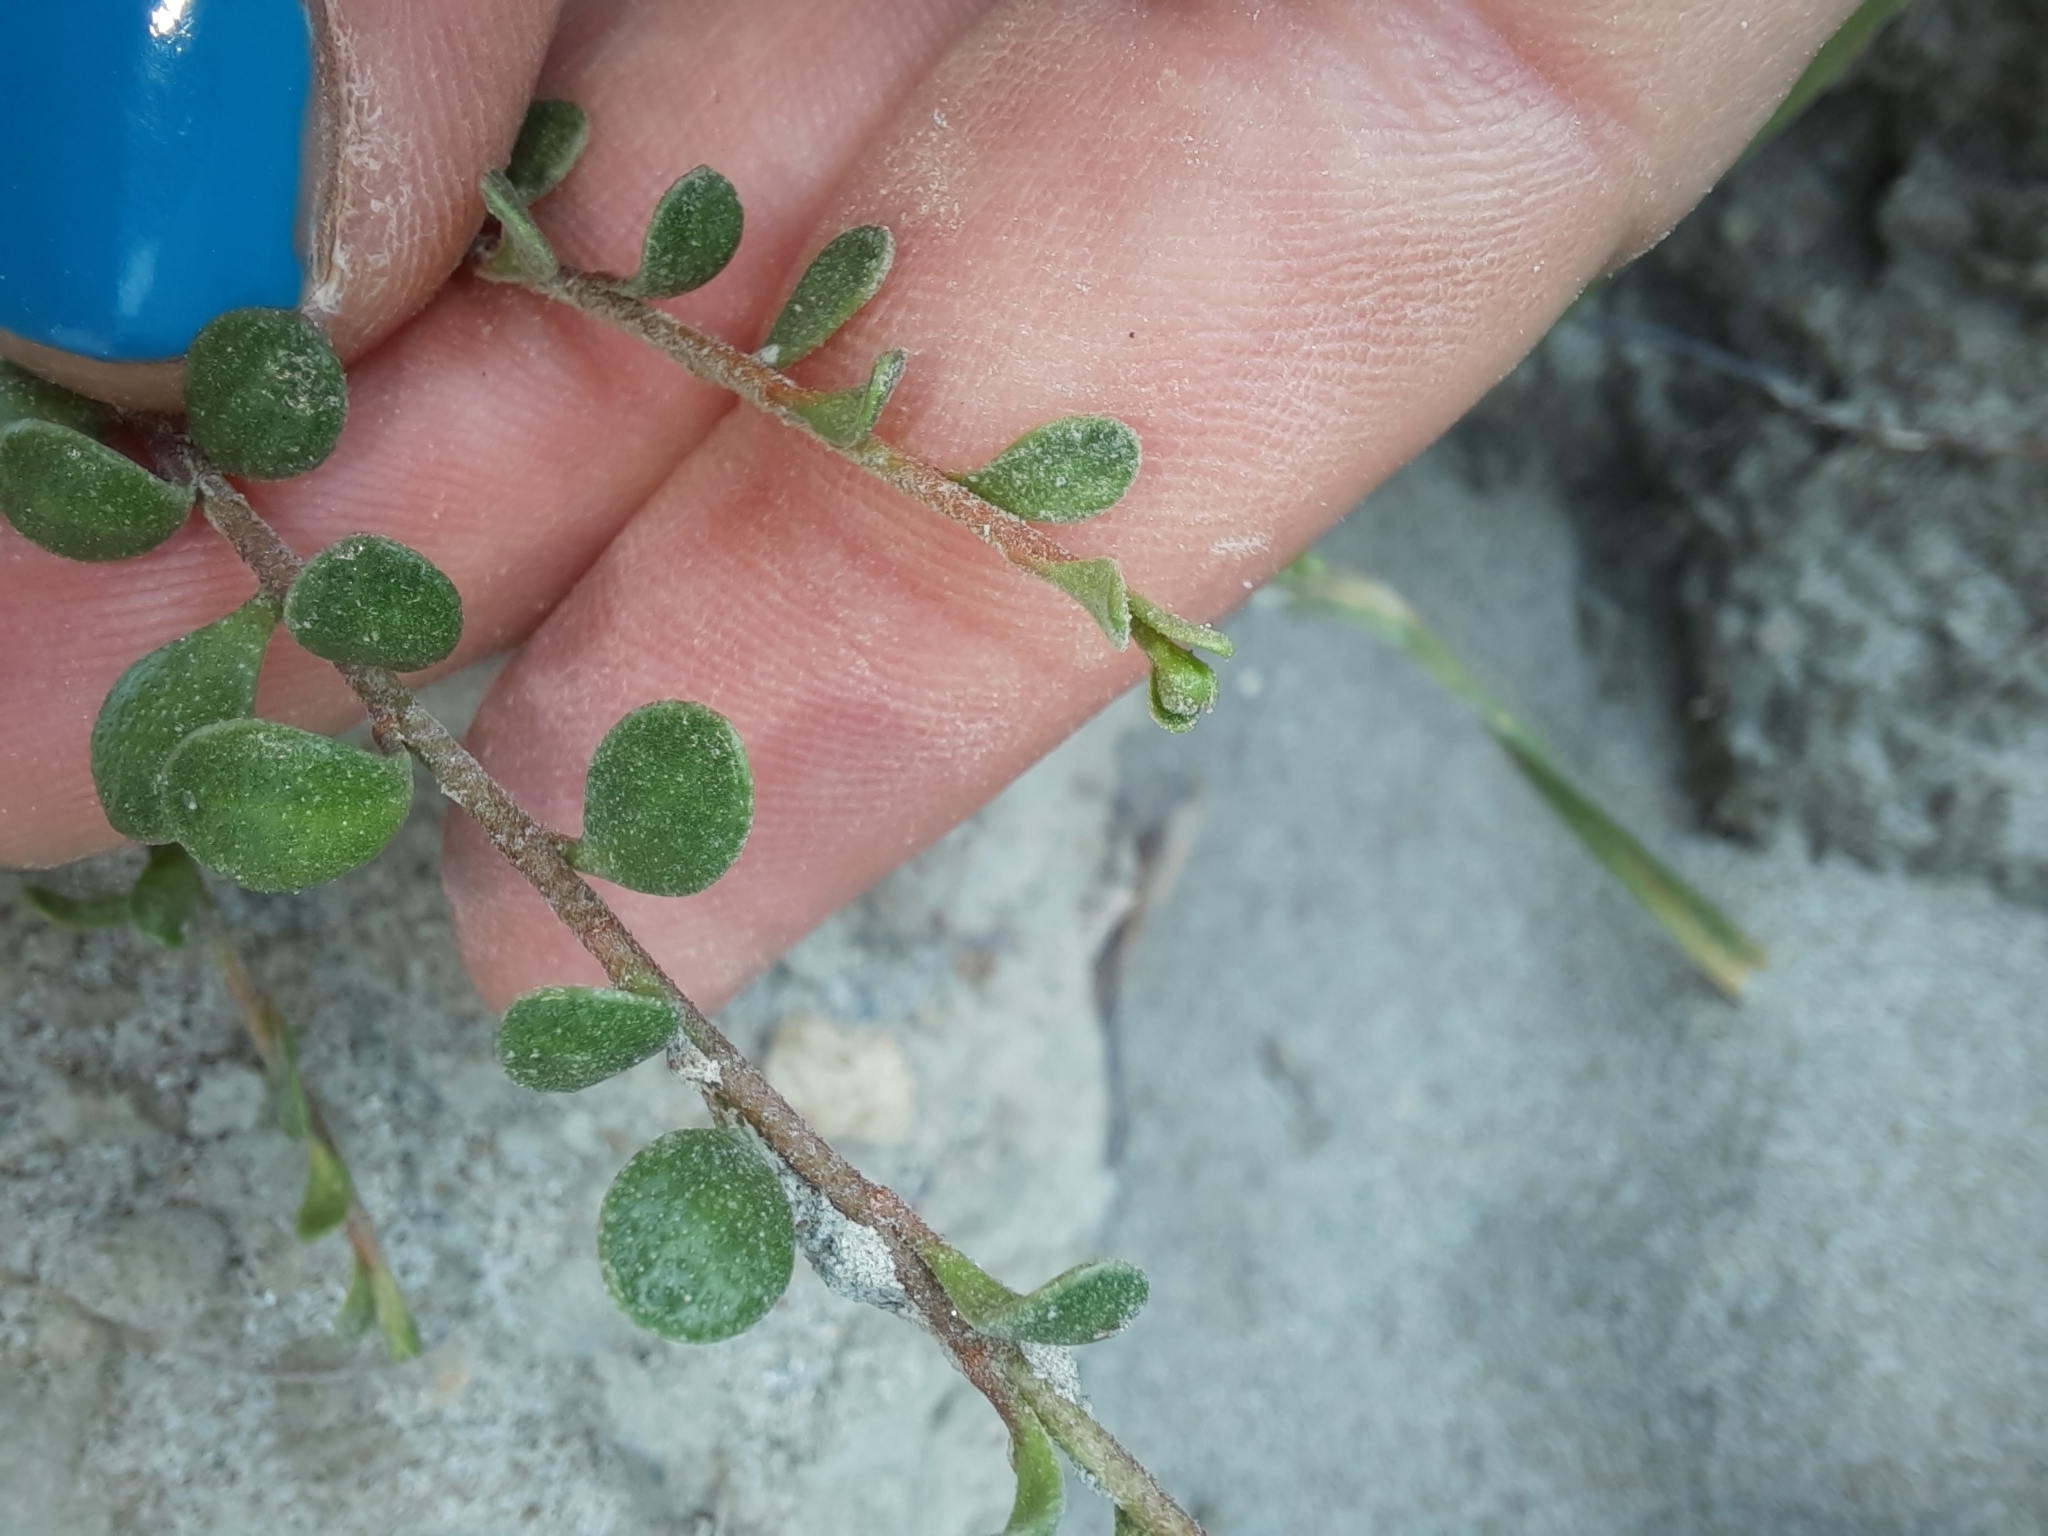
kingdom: Plantae
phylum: Tracheophyta
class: Magnoliopsida
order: Ericales
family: Primulaceae
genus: Samolus
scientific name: Samolus repens
